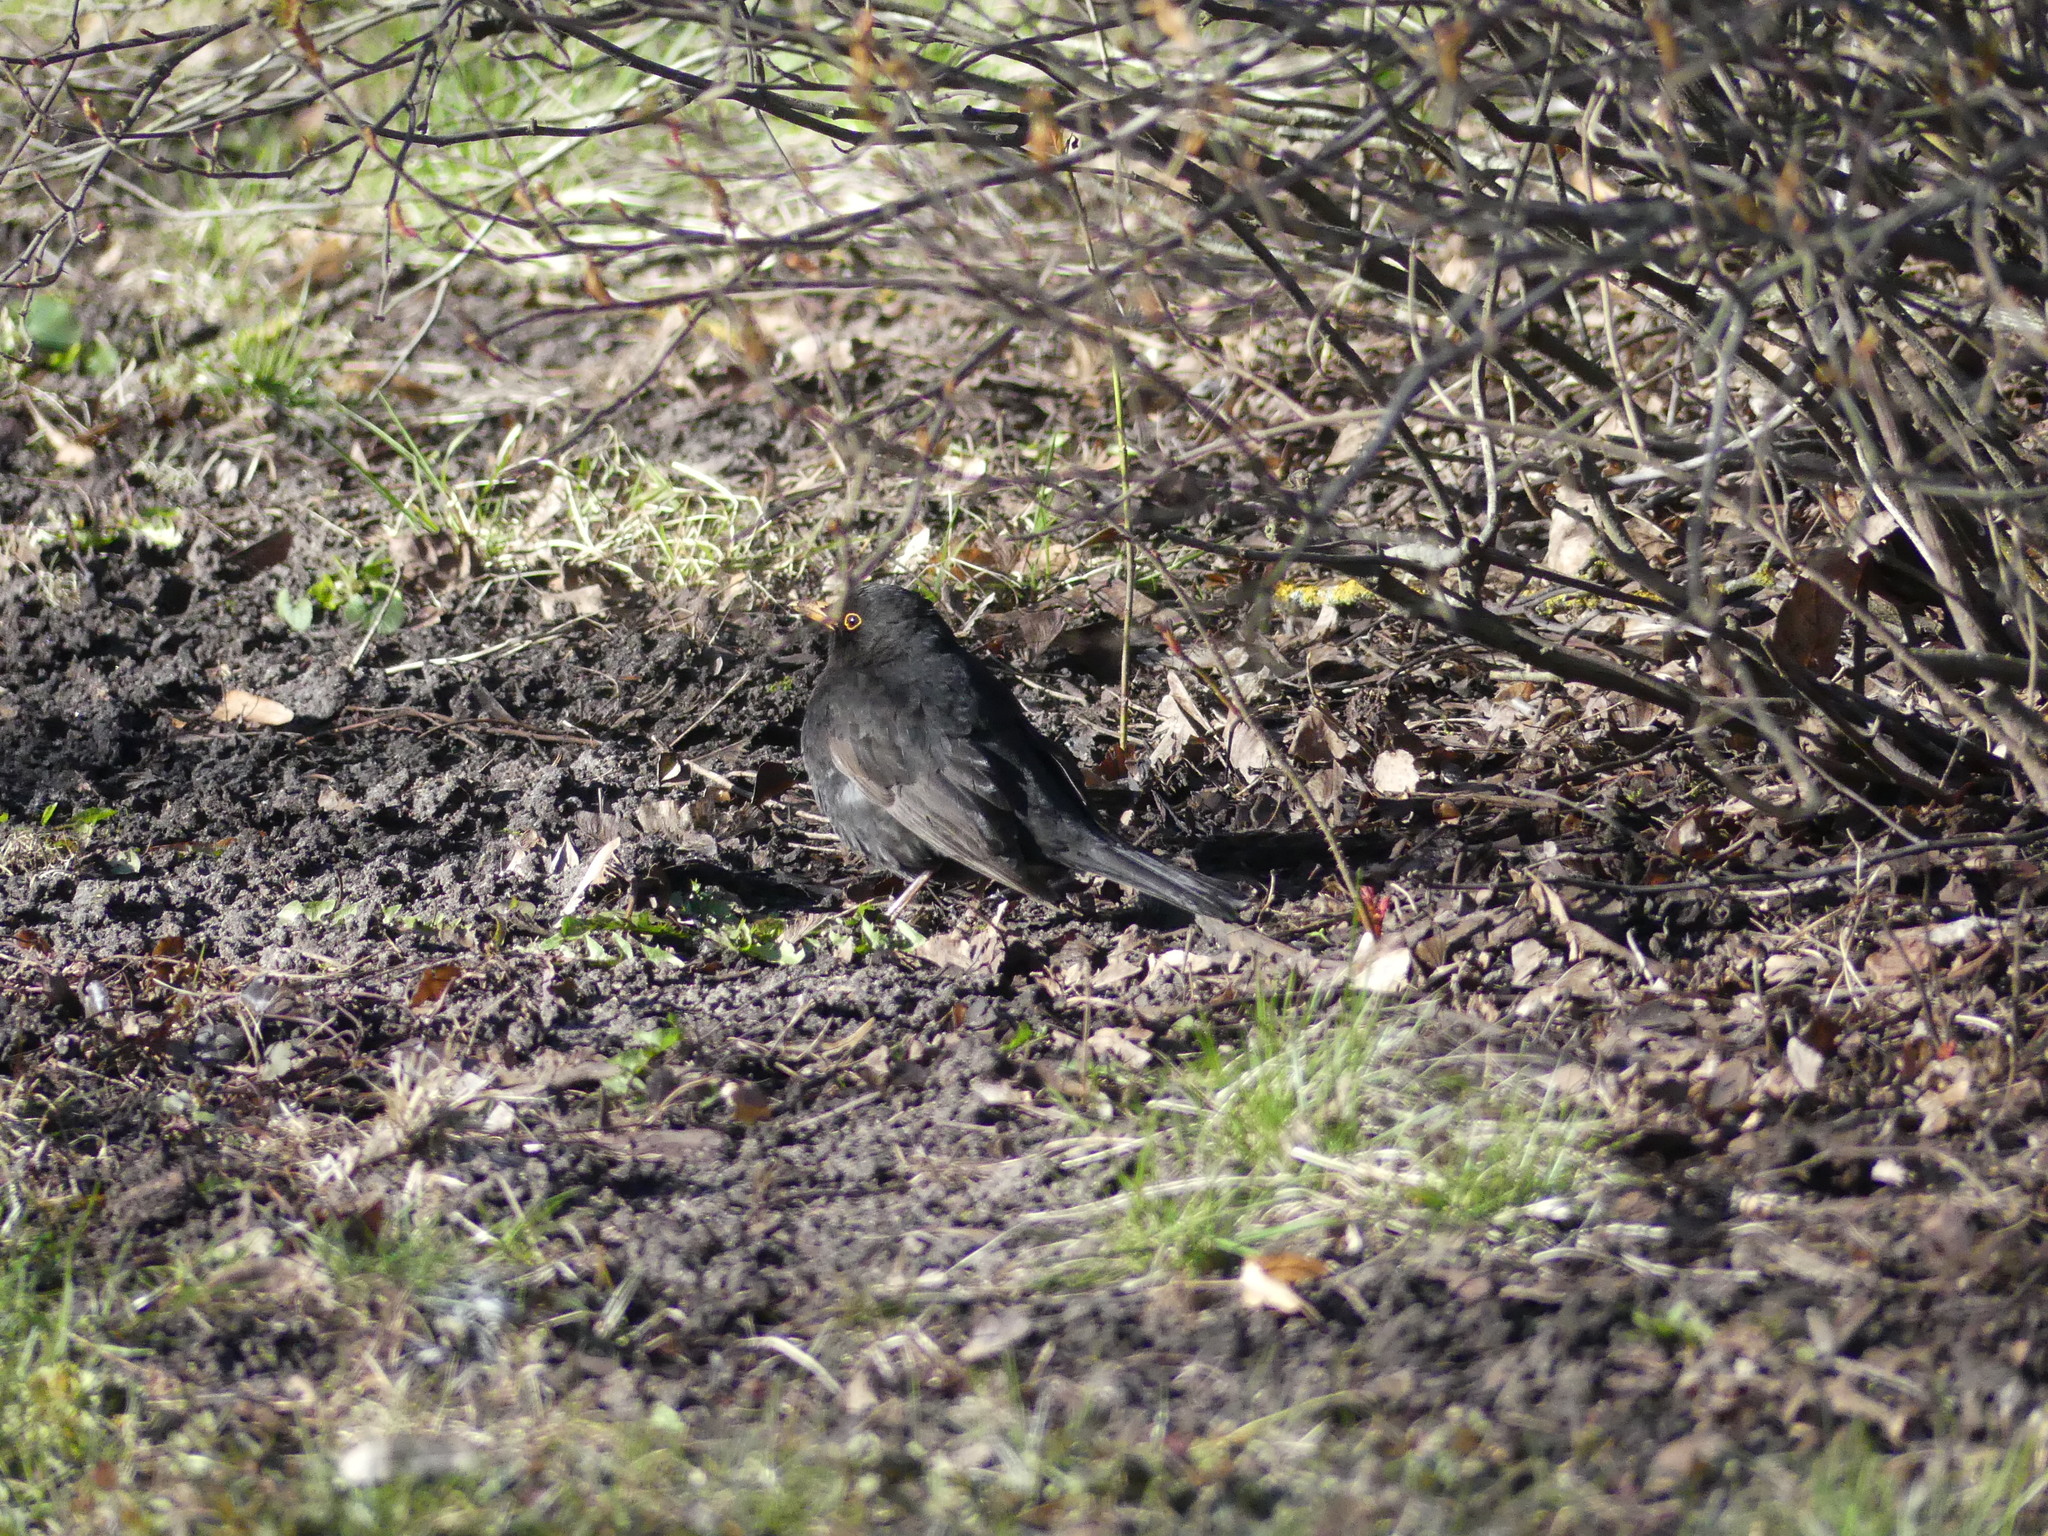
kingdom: Animalia
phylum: Chordata
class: Aves
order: Passeriformes
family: Turdidae
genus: Turdus
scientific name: Turdus merula
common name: Common blackbird
